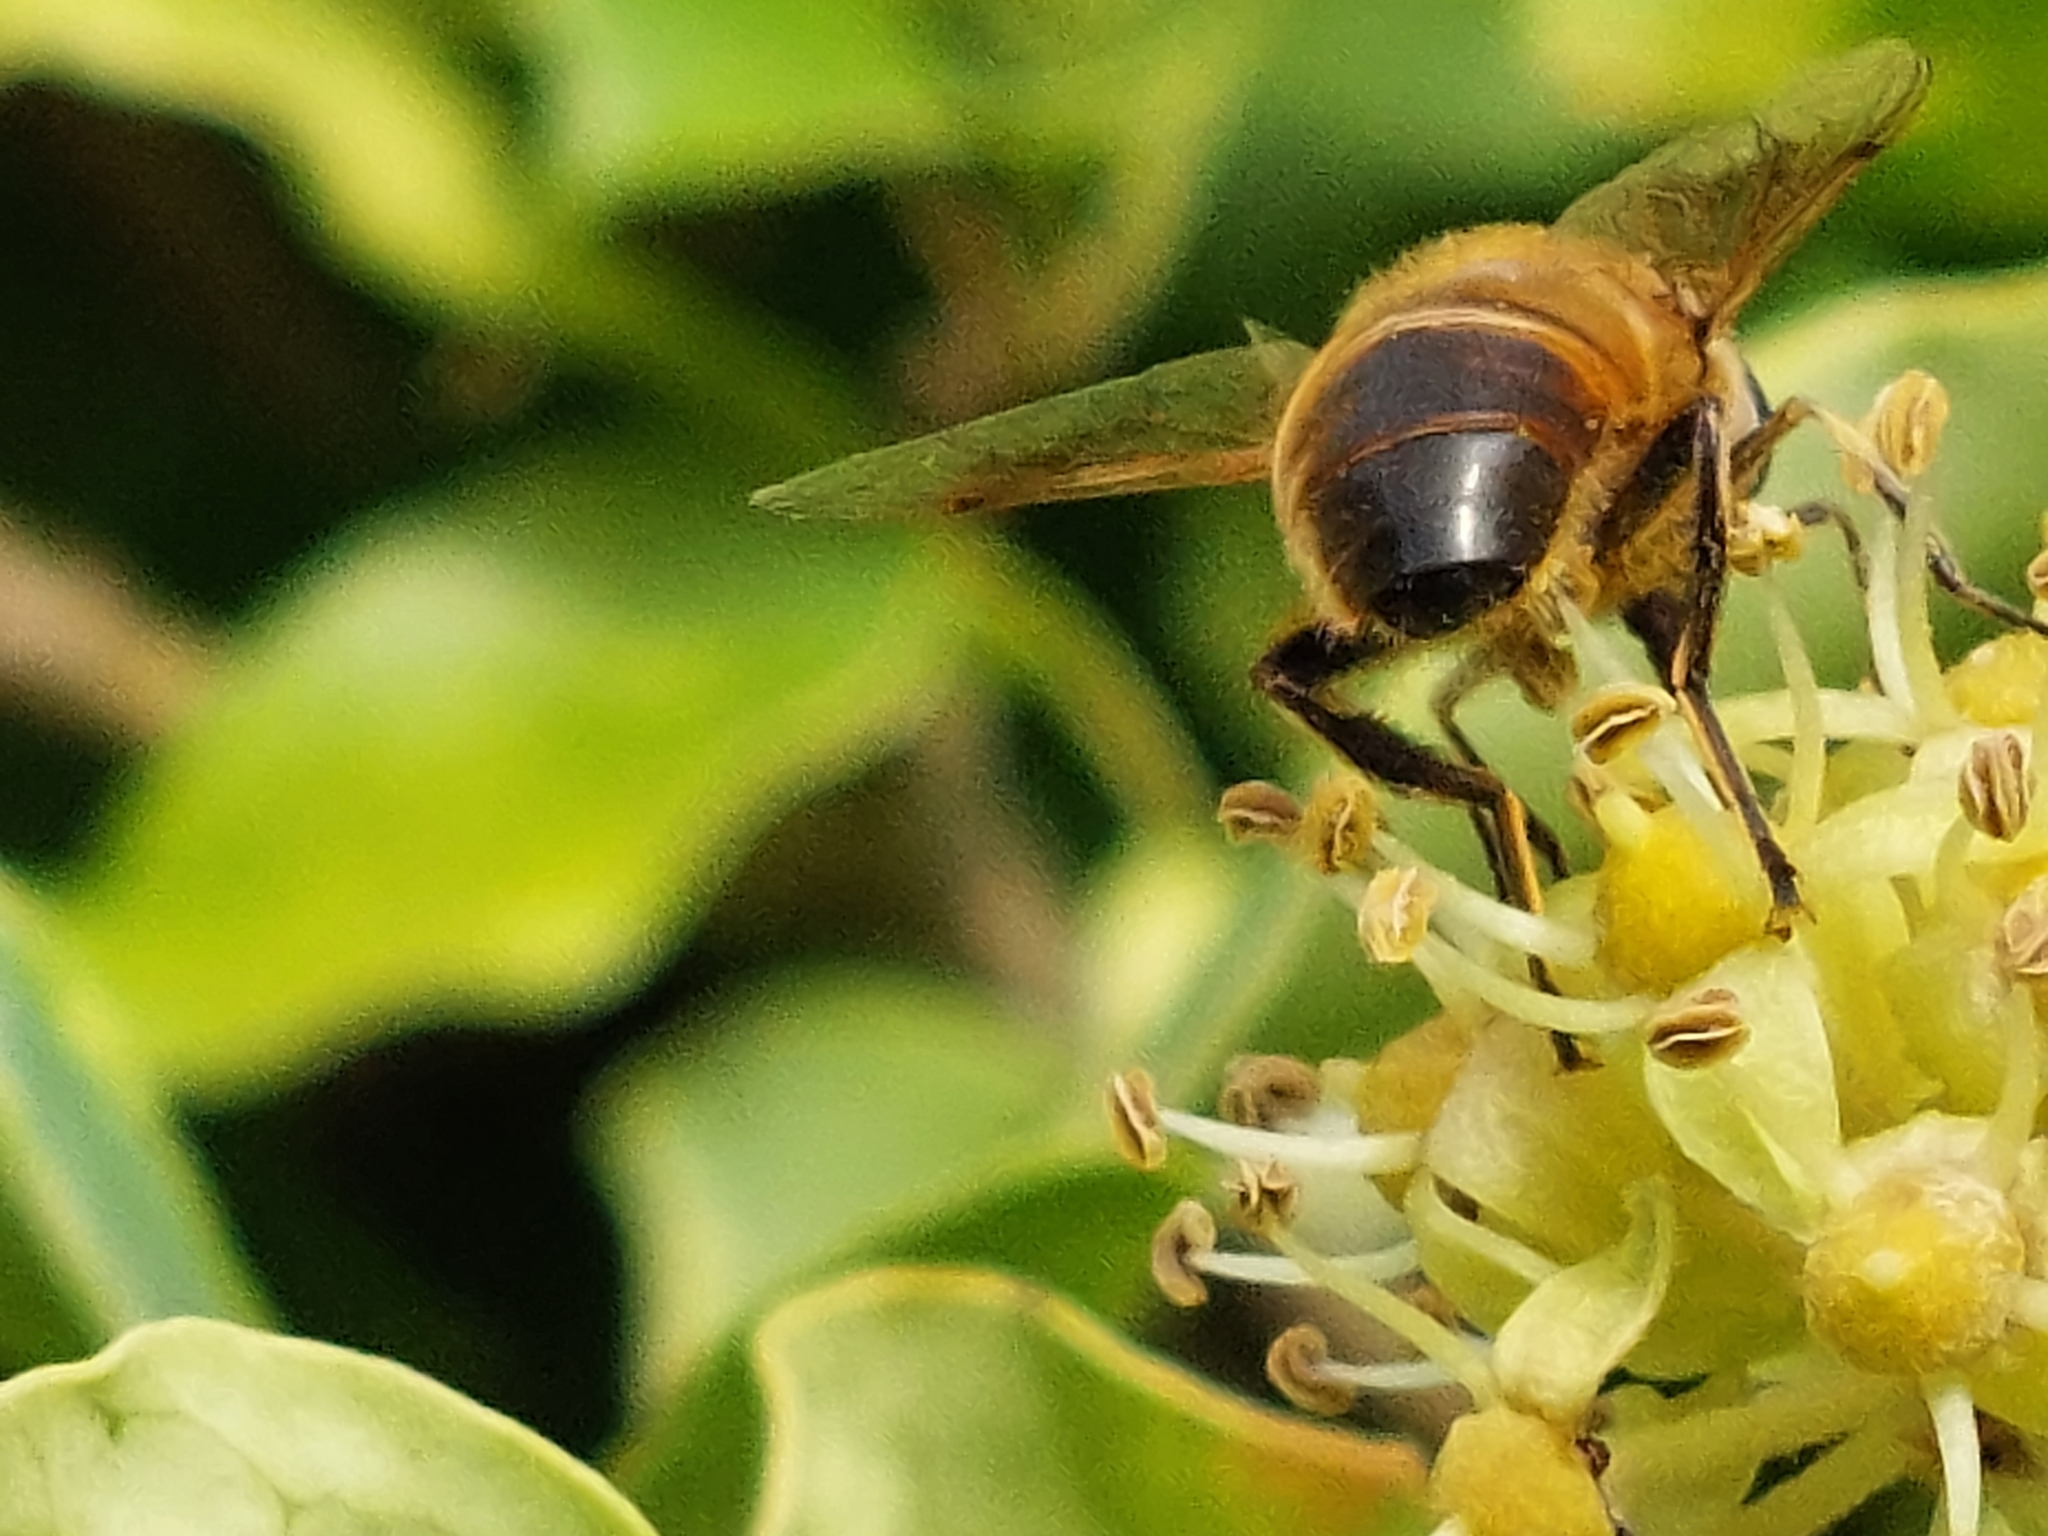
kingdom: Animalia
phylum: Arthropoda
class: Insecta
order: Diptera
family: Syrphidae
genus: Eristalis
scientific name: Eristalis tenax
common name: Drone fly
